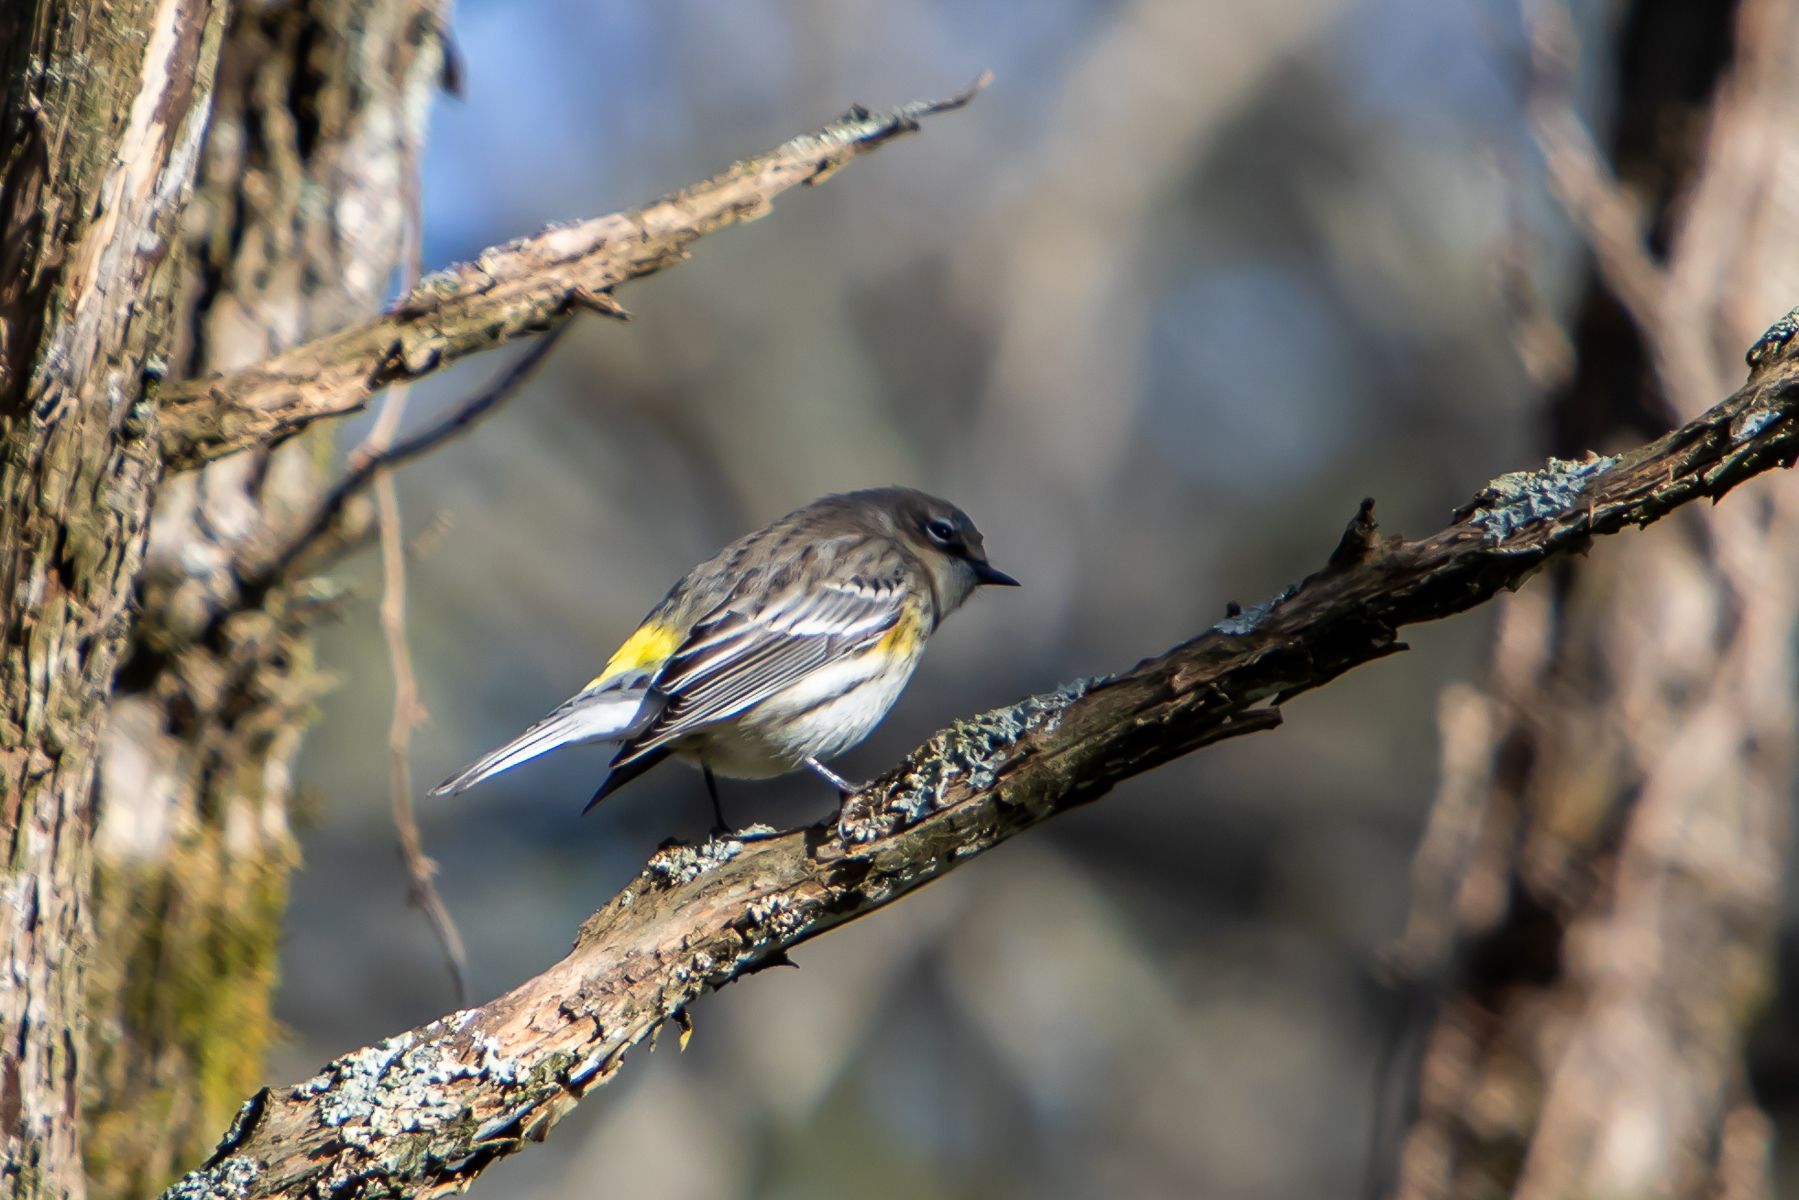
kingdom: Animalia
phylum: Chordata
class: Aves
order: Passeriformes
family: Parulidae
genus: Setophaga
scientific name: Setophaga coronata
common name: Myrtle warbler
